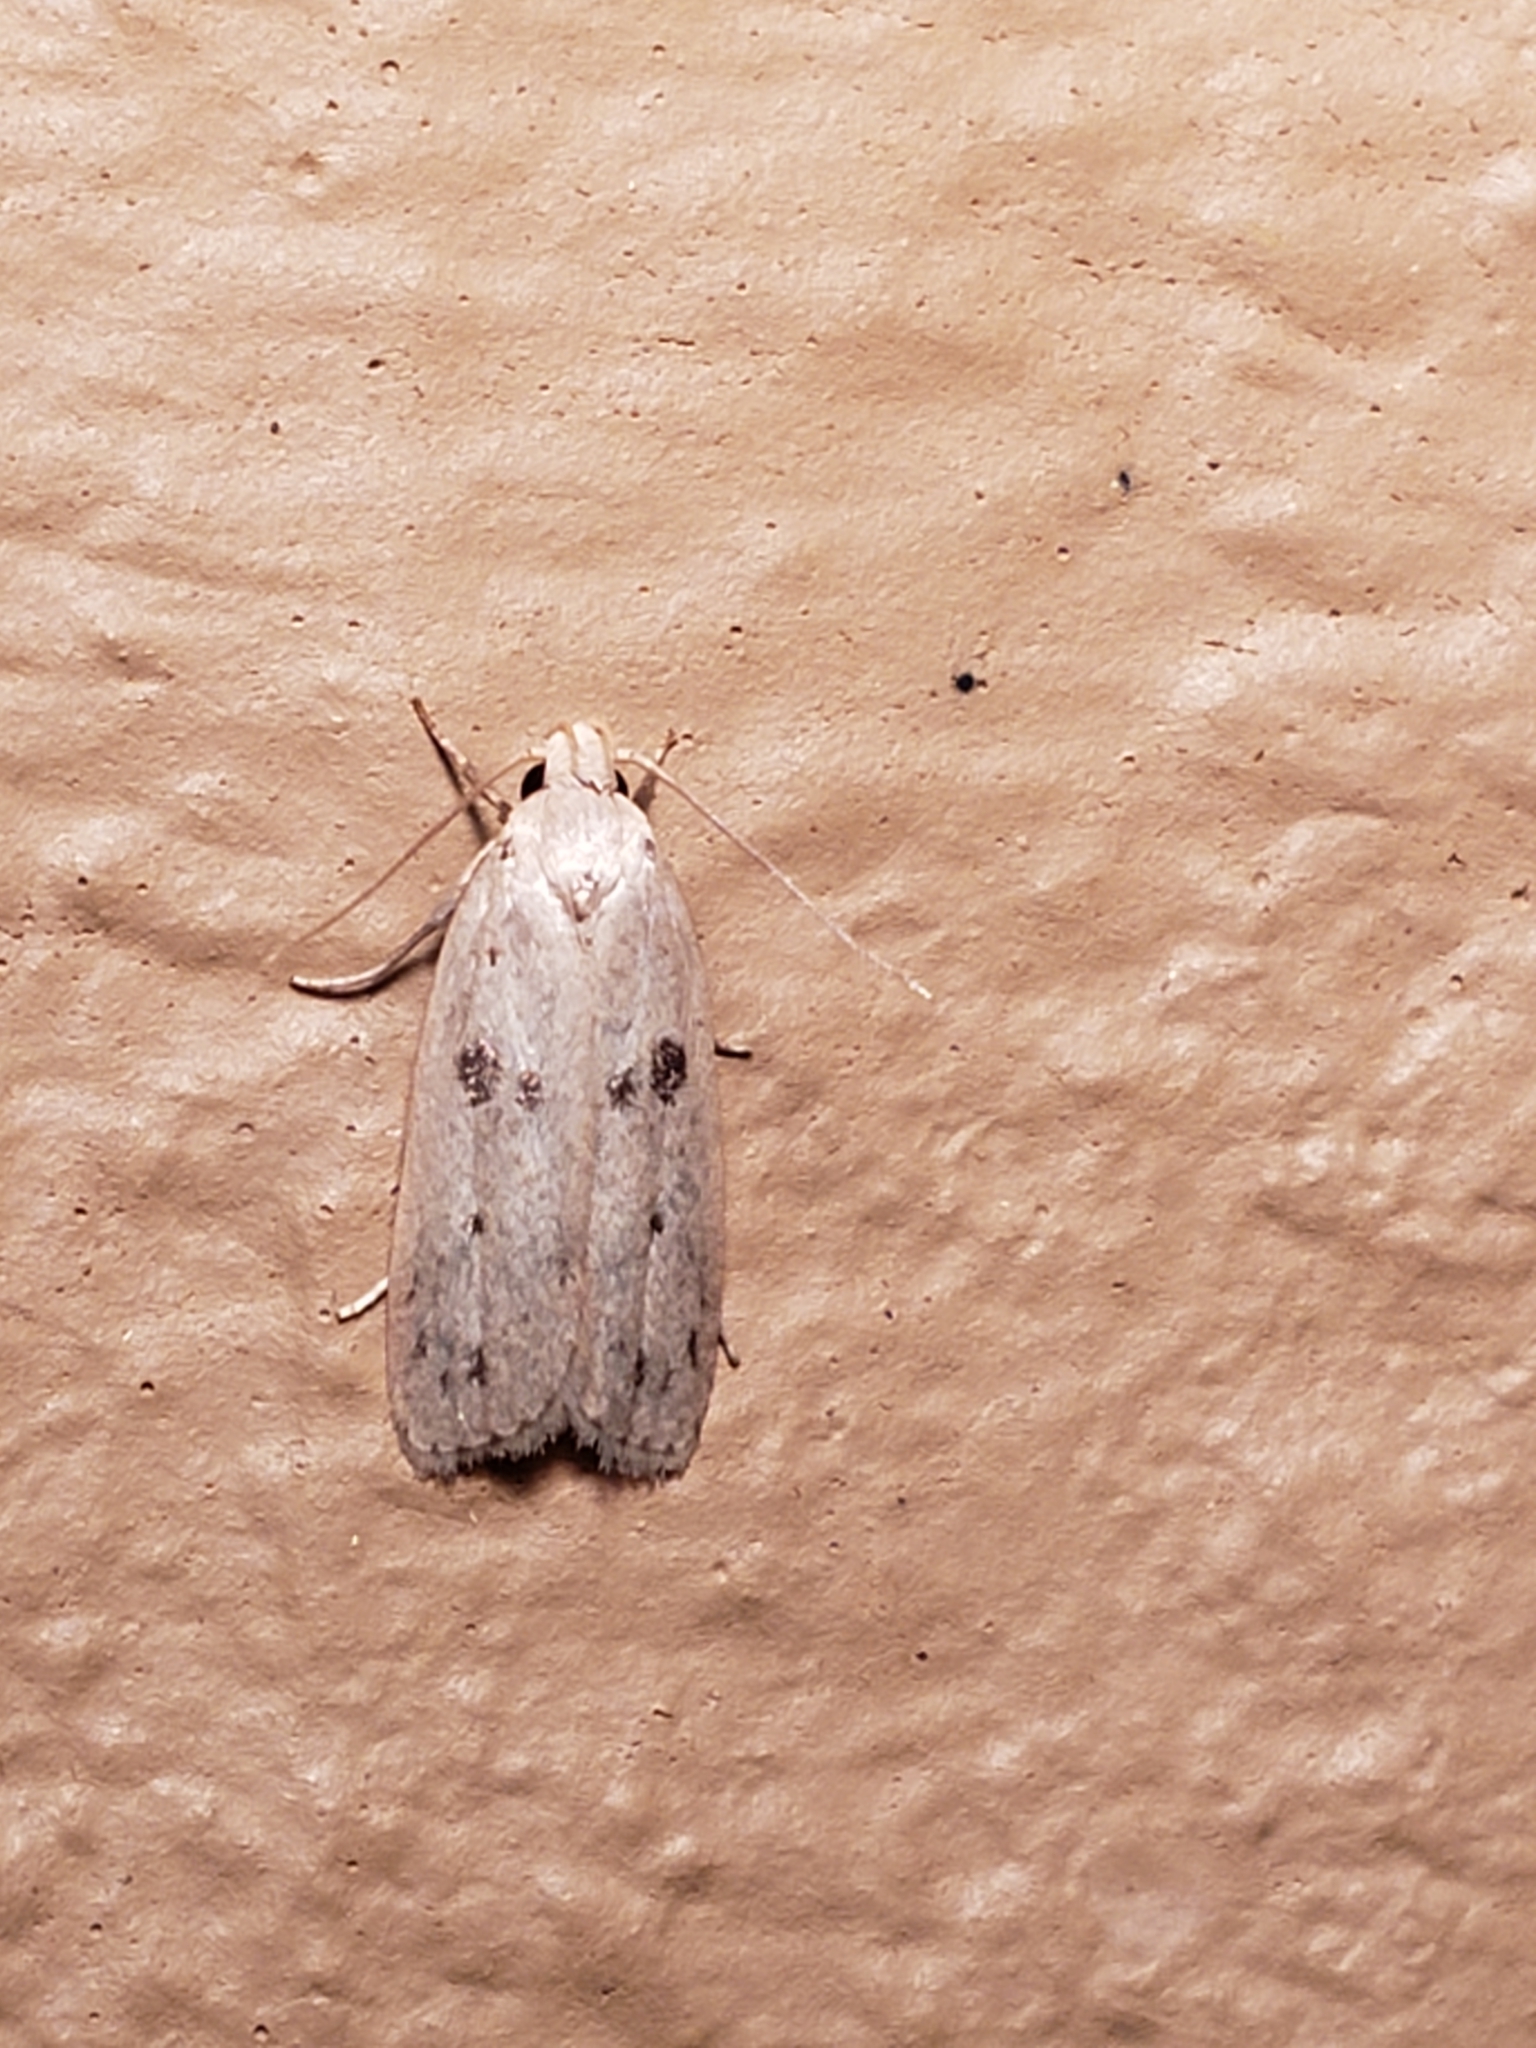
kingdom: Animalia
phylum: Arthropoda
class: Insecta
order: Lepidoptera
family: Peleopodidae
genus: Scythropiodes
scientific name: Scythropiodes issikii
